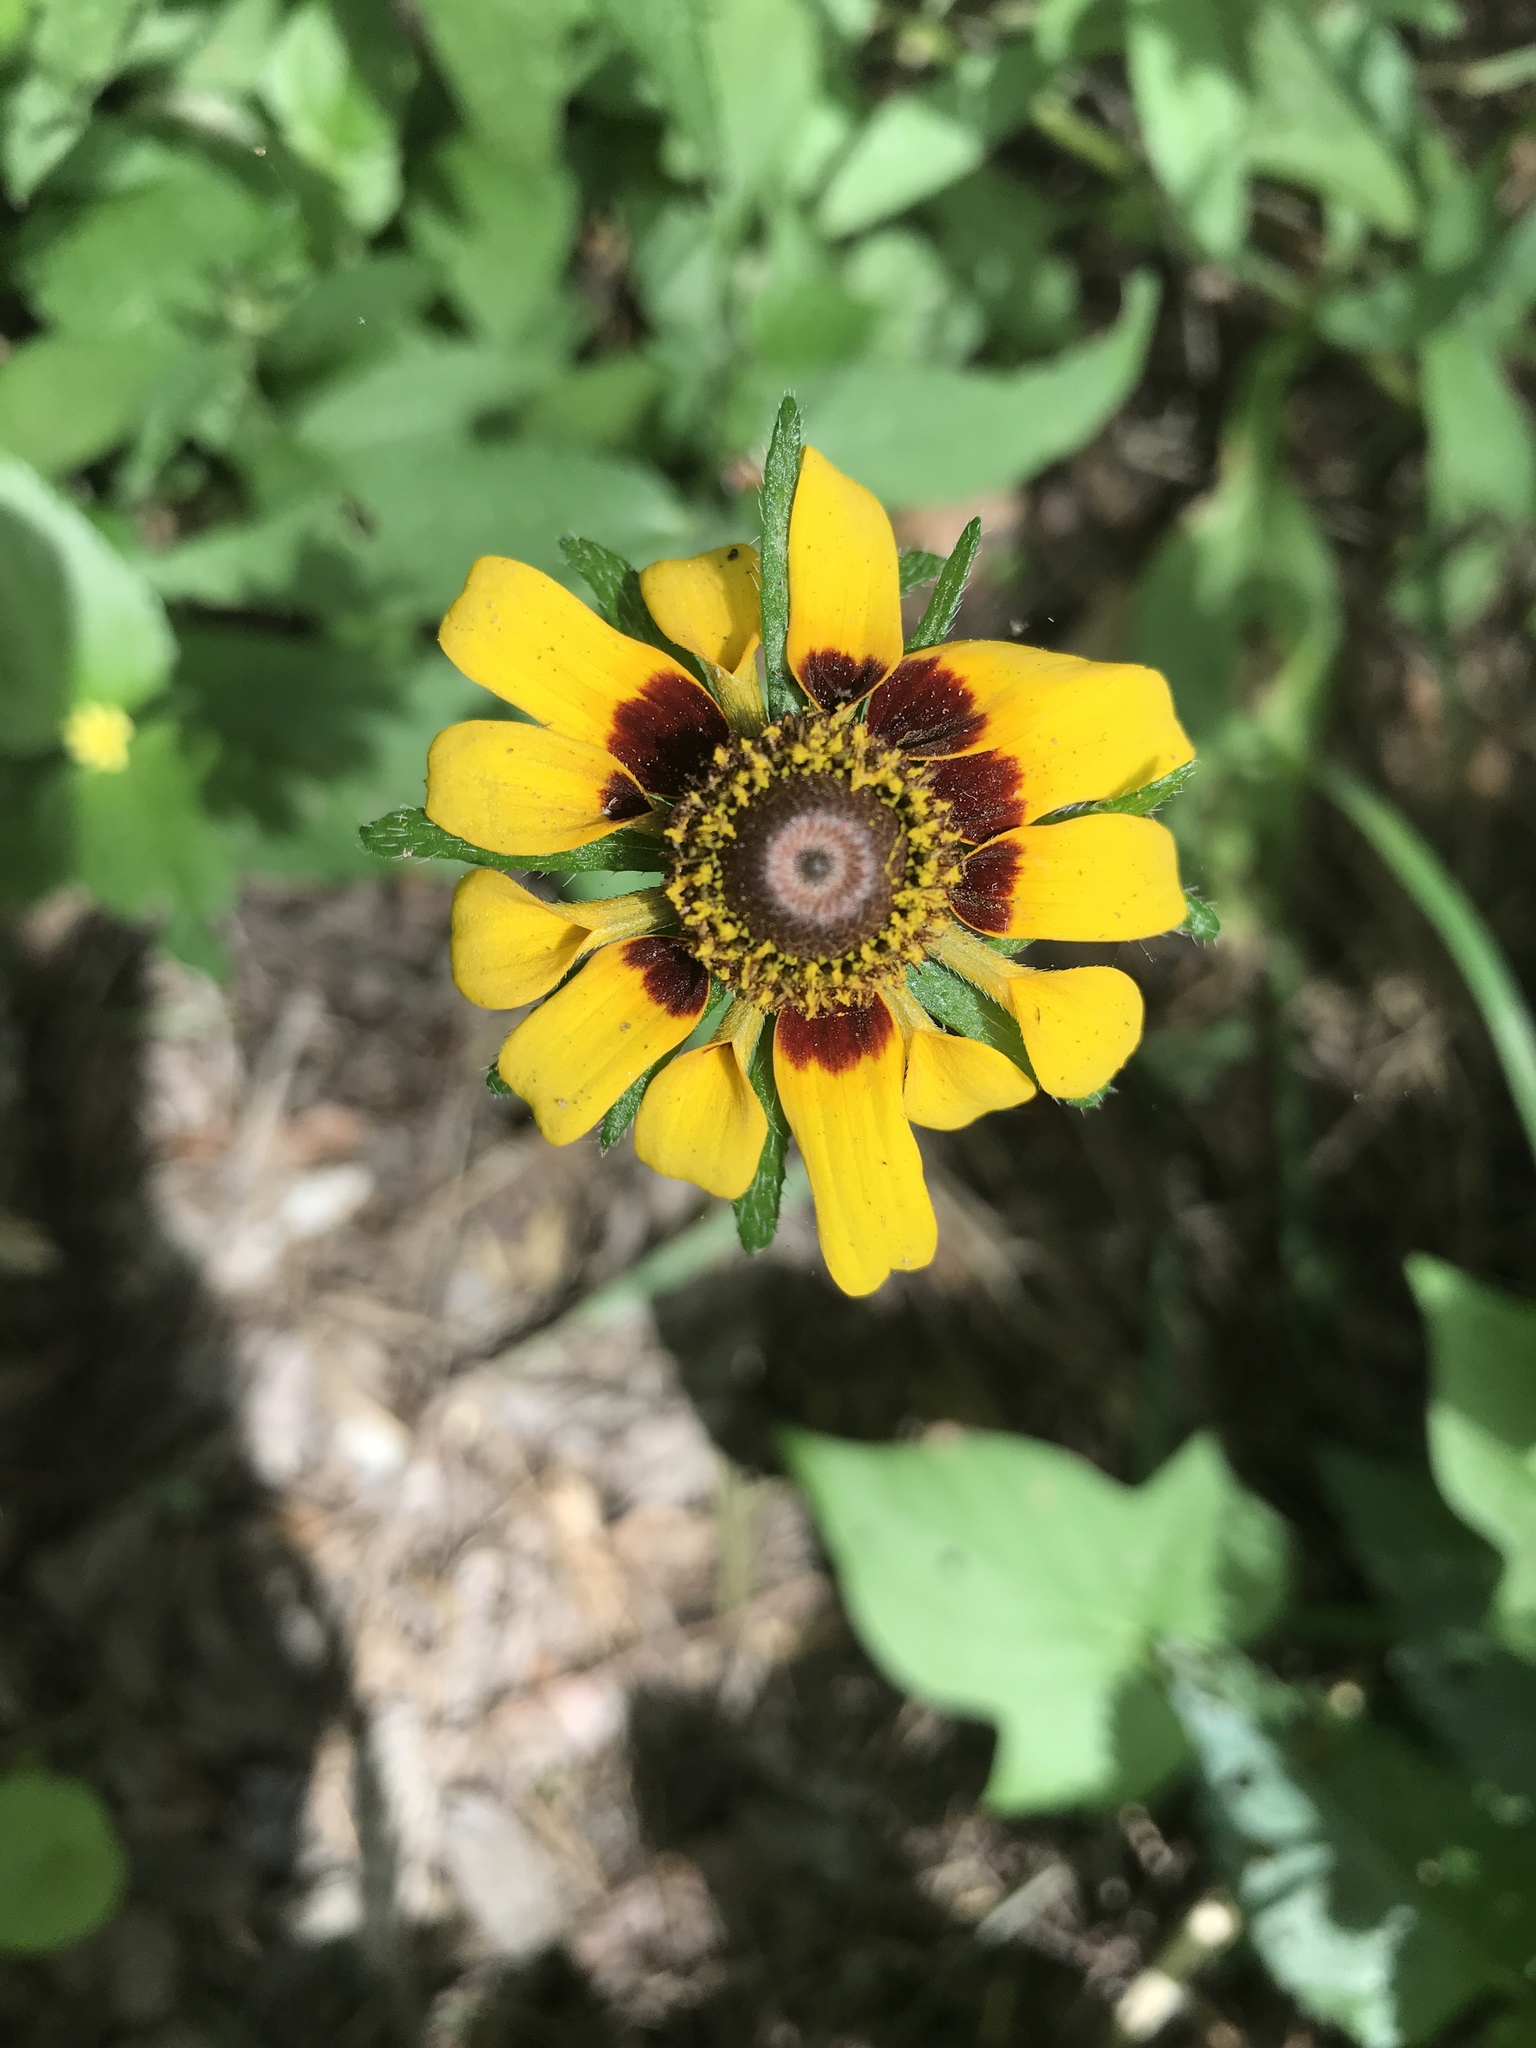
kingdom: Plantae
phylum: Tracheophyta
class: Magnoliopsida
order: Asterales
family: Asteraceae
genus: Rudbeckia
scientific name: Rudbeckia hirta
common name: Black-eyed-susan
